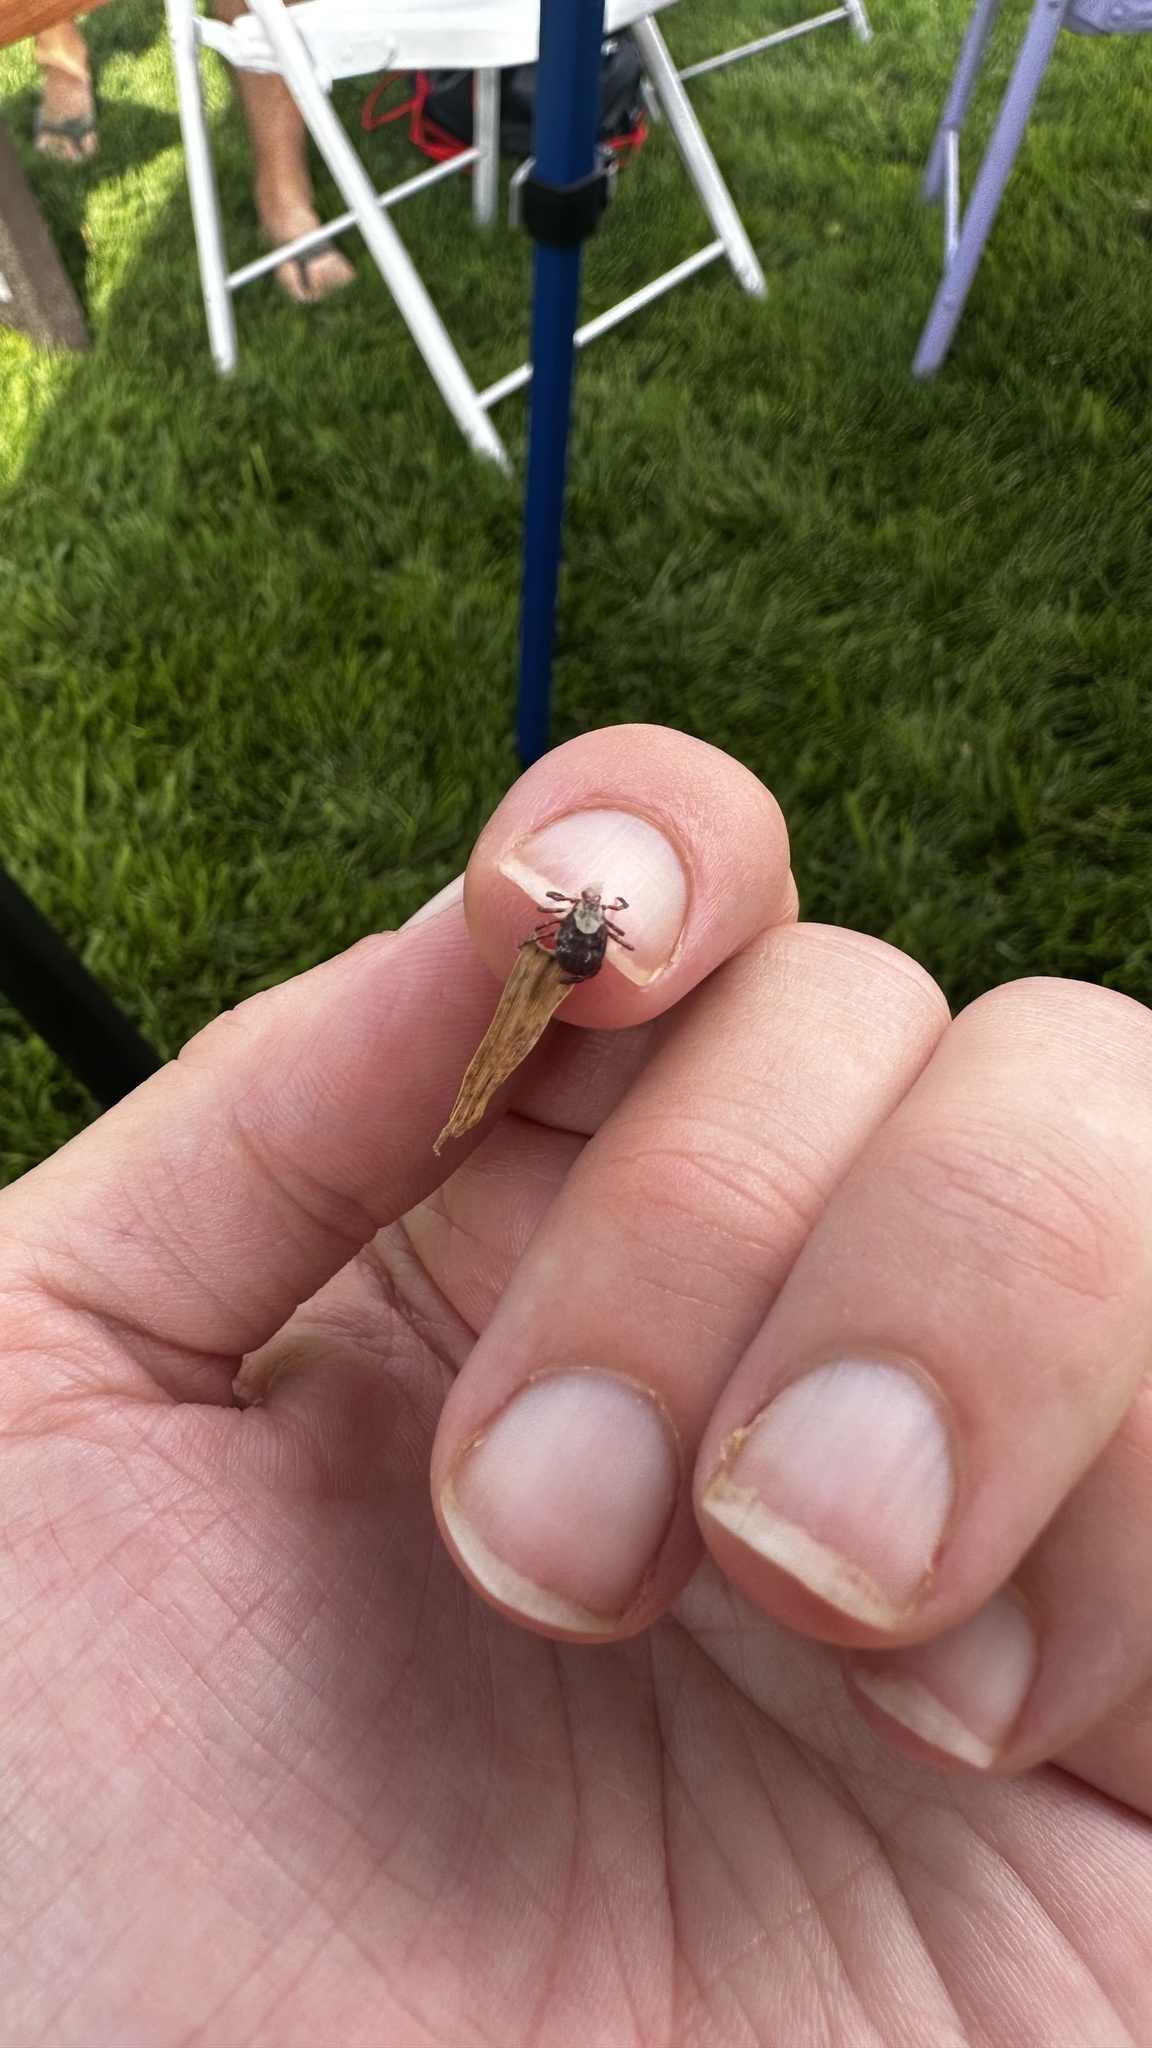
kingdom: Animalia
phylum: Arthropoda
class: Arachnida
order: Ixodida
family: Ixodidae
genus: Dermacentor
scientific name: Dermacentor andersoni
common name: Rocky mountain wood tick
